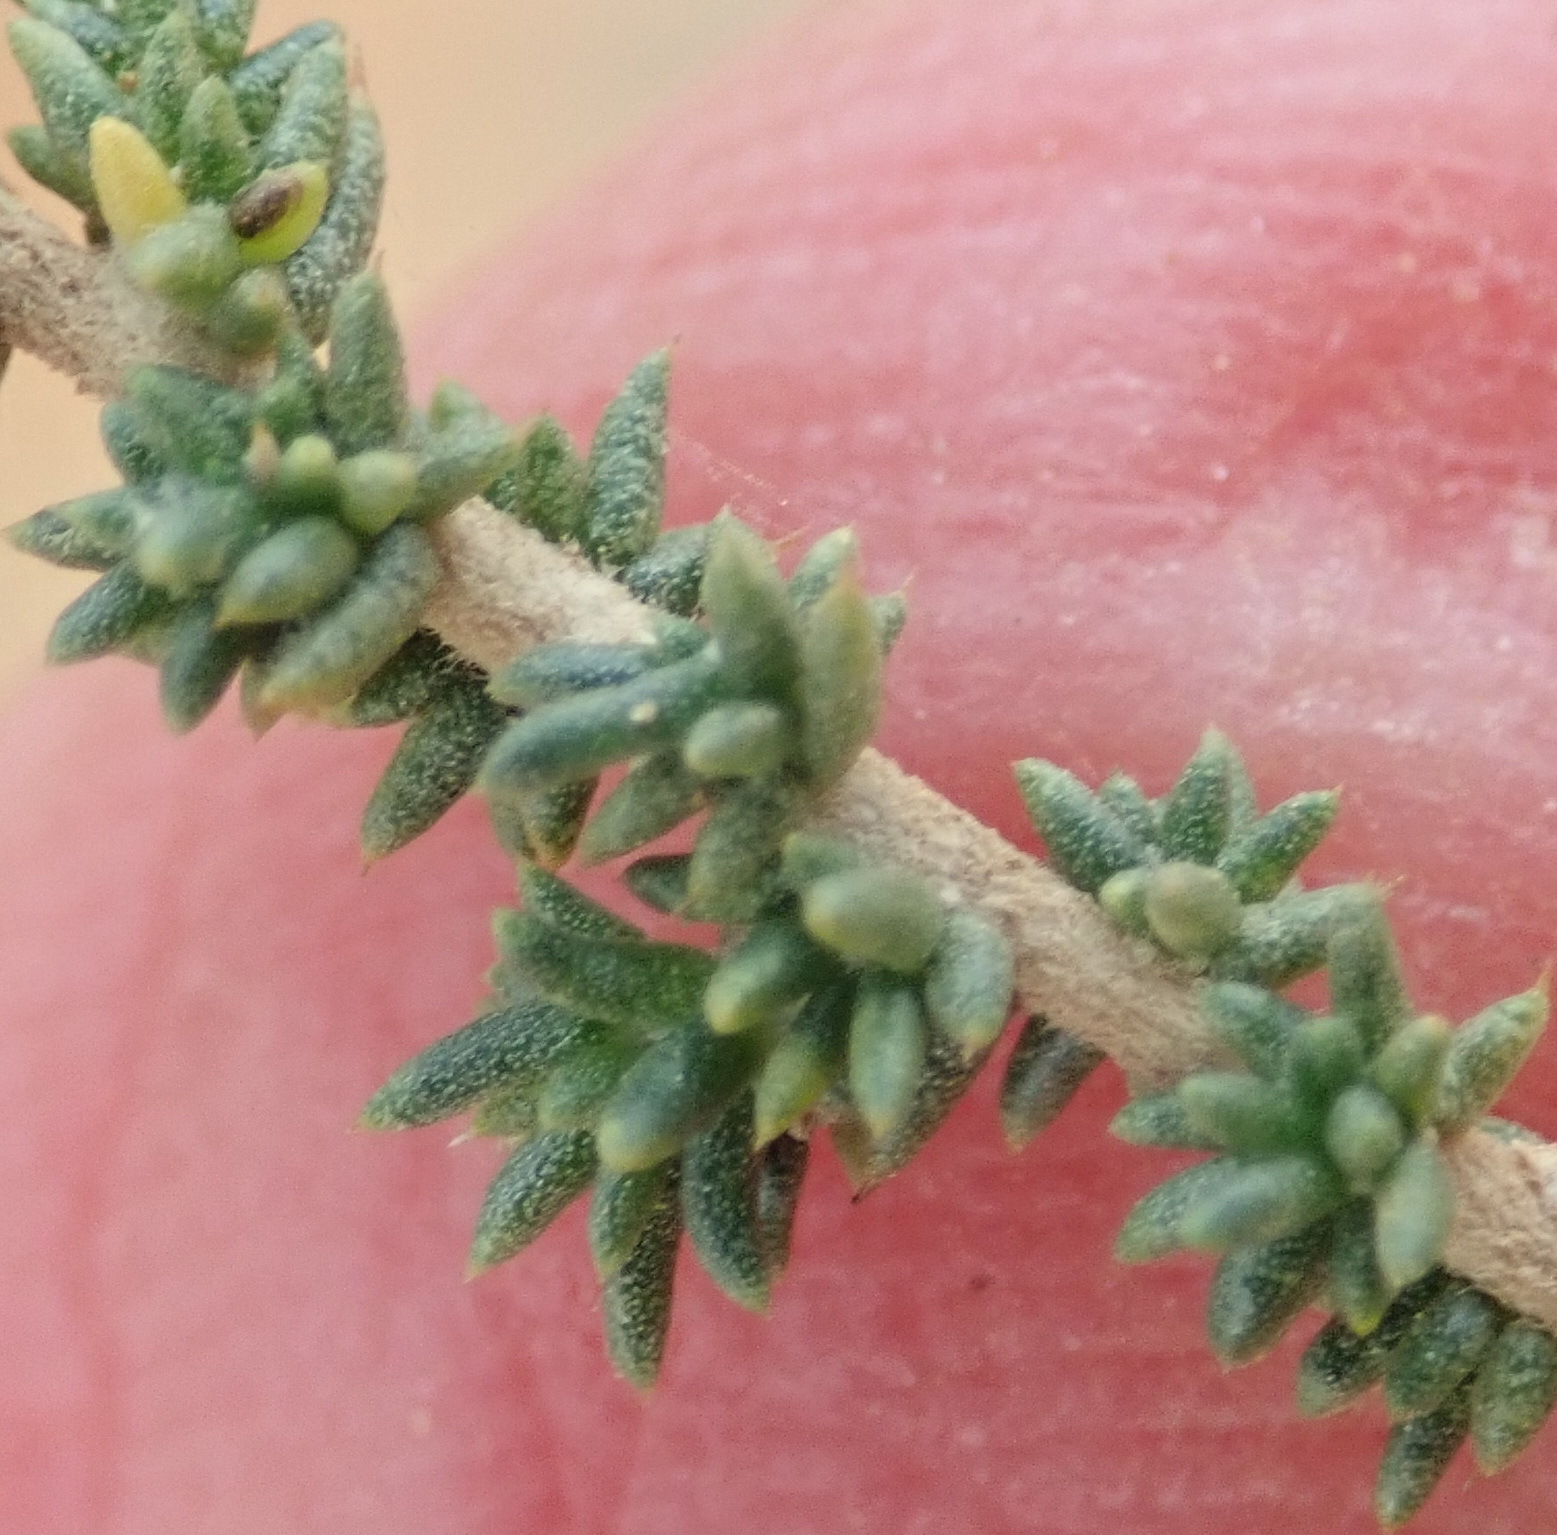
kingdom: Plantae
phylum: Tracheophyta
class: Magnoliopsida
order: Fabales
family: Fabaceae
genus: Aspalathus
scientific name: Aspalathus acuminata
